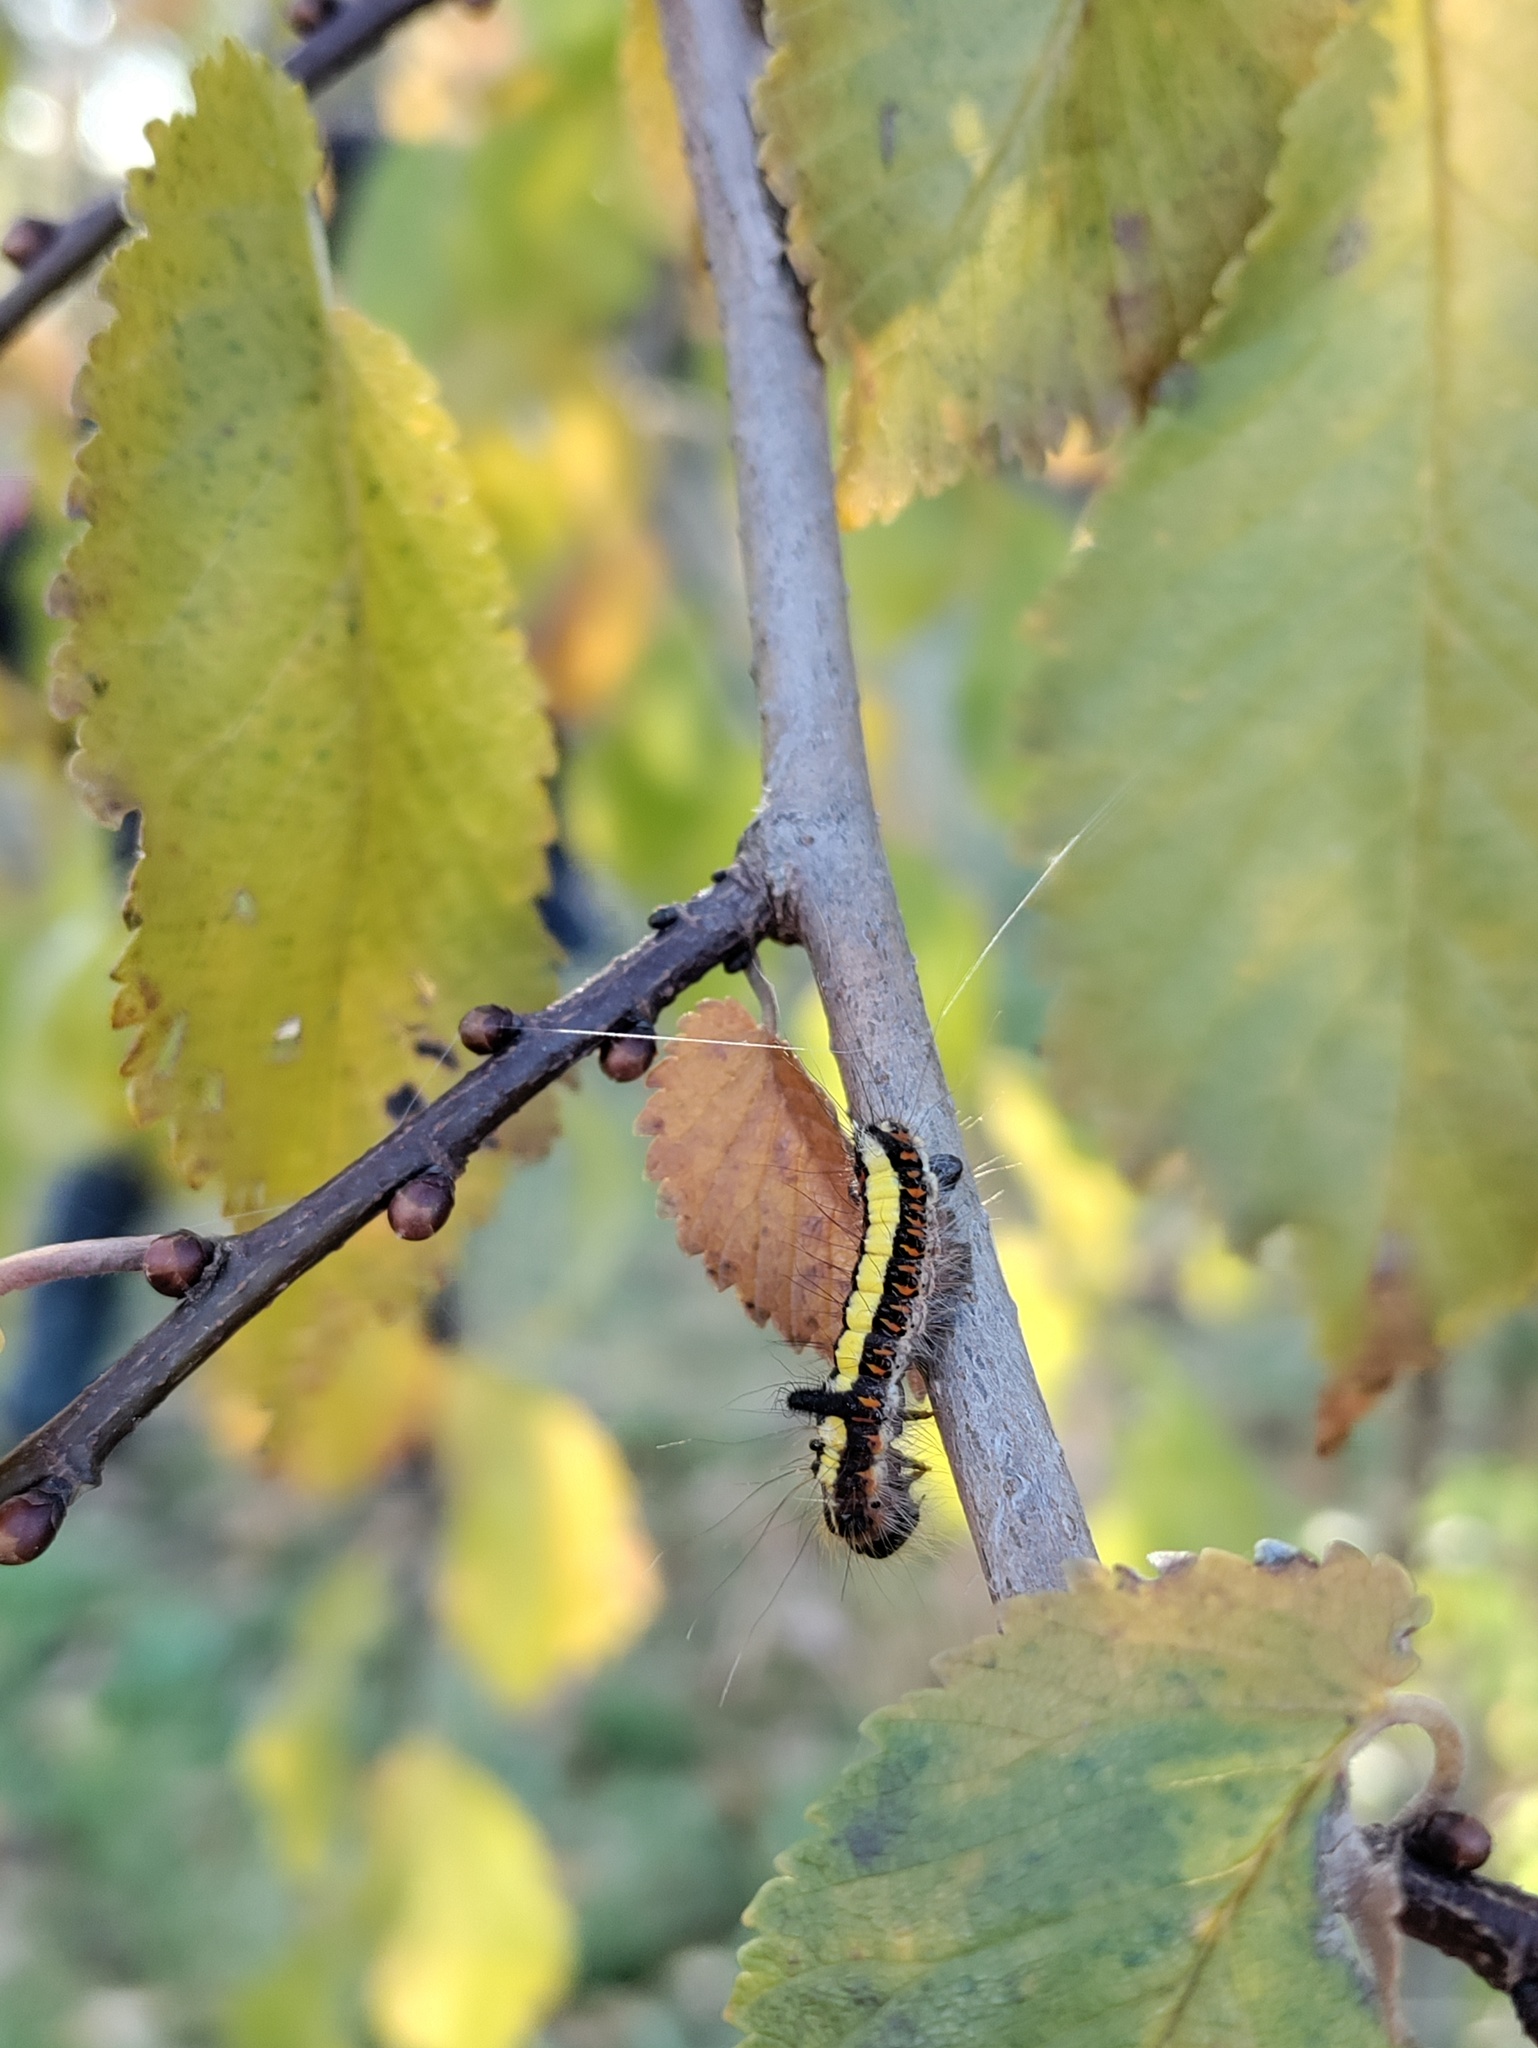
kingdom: Animalia
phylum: Arthropoda
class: Insecta
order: Lepidoptera
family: Noctuidae
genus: Acronicta
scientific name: Acronicta psi
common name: Grey dagger
